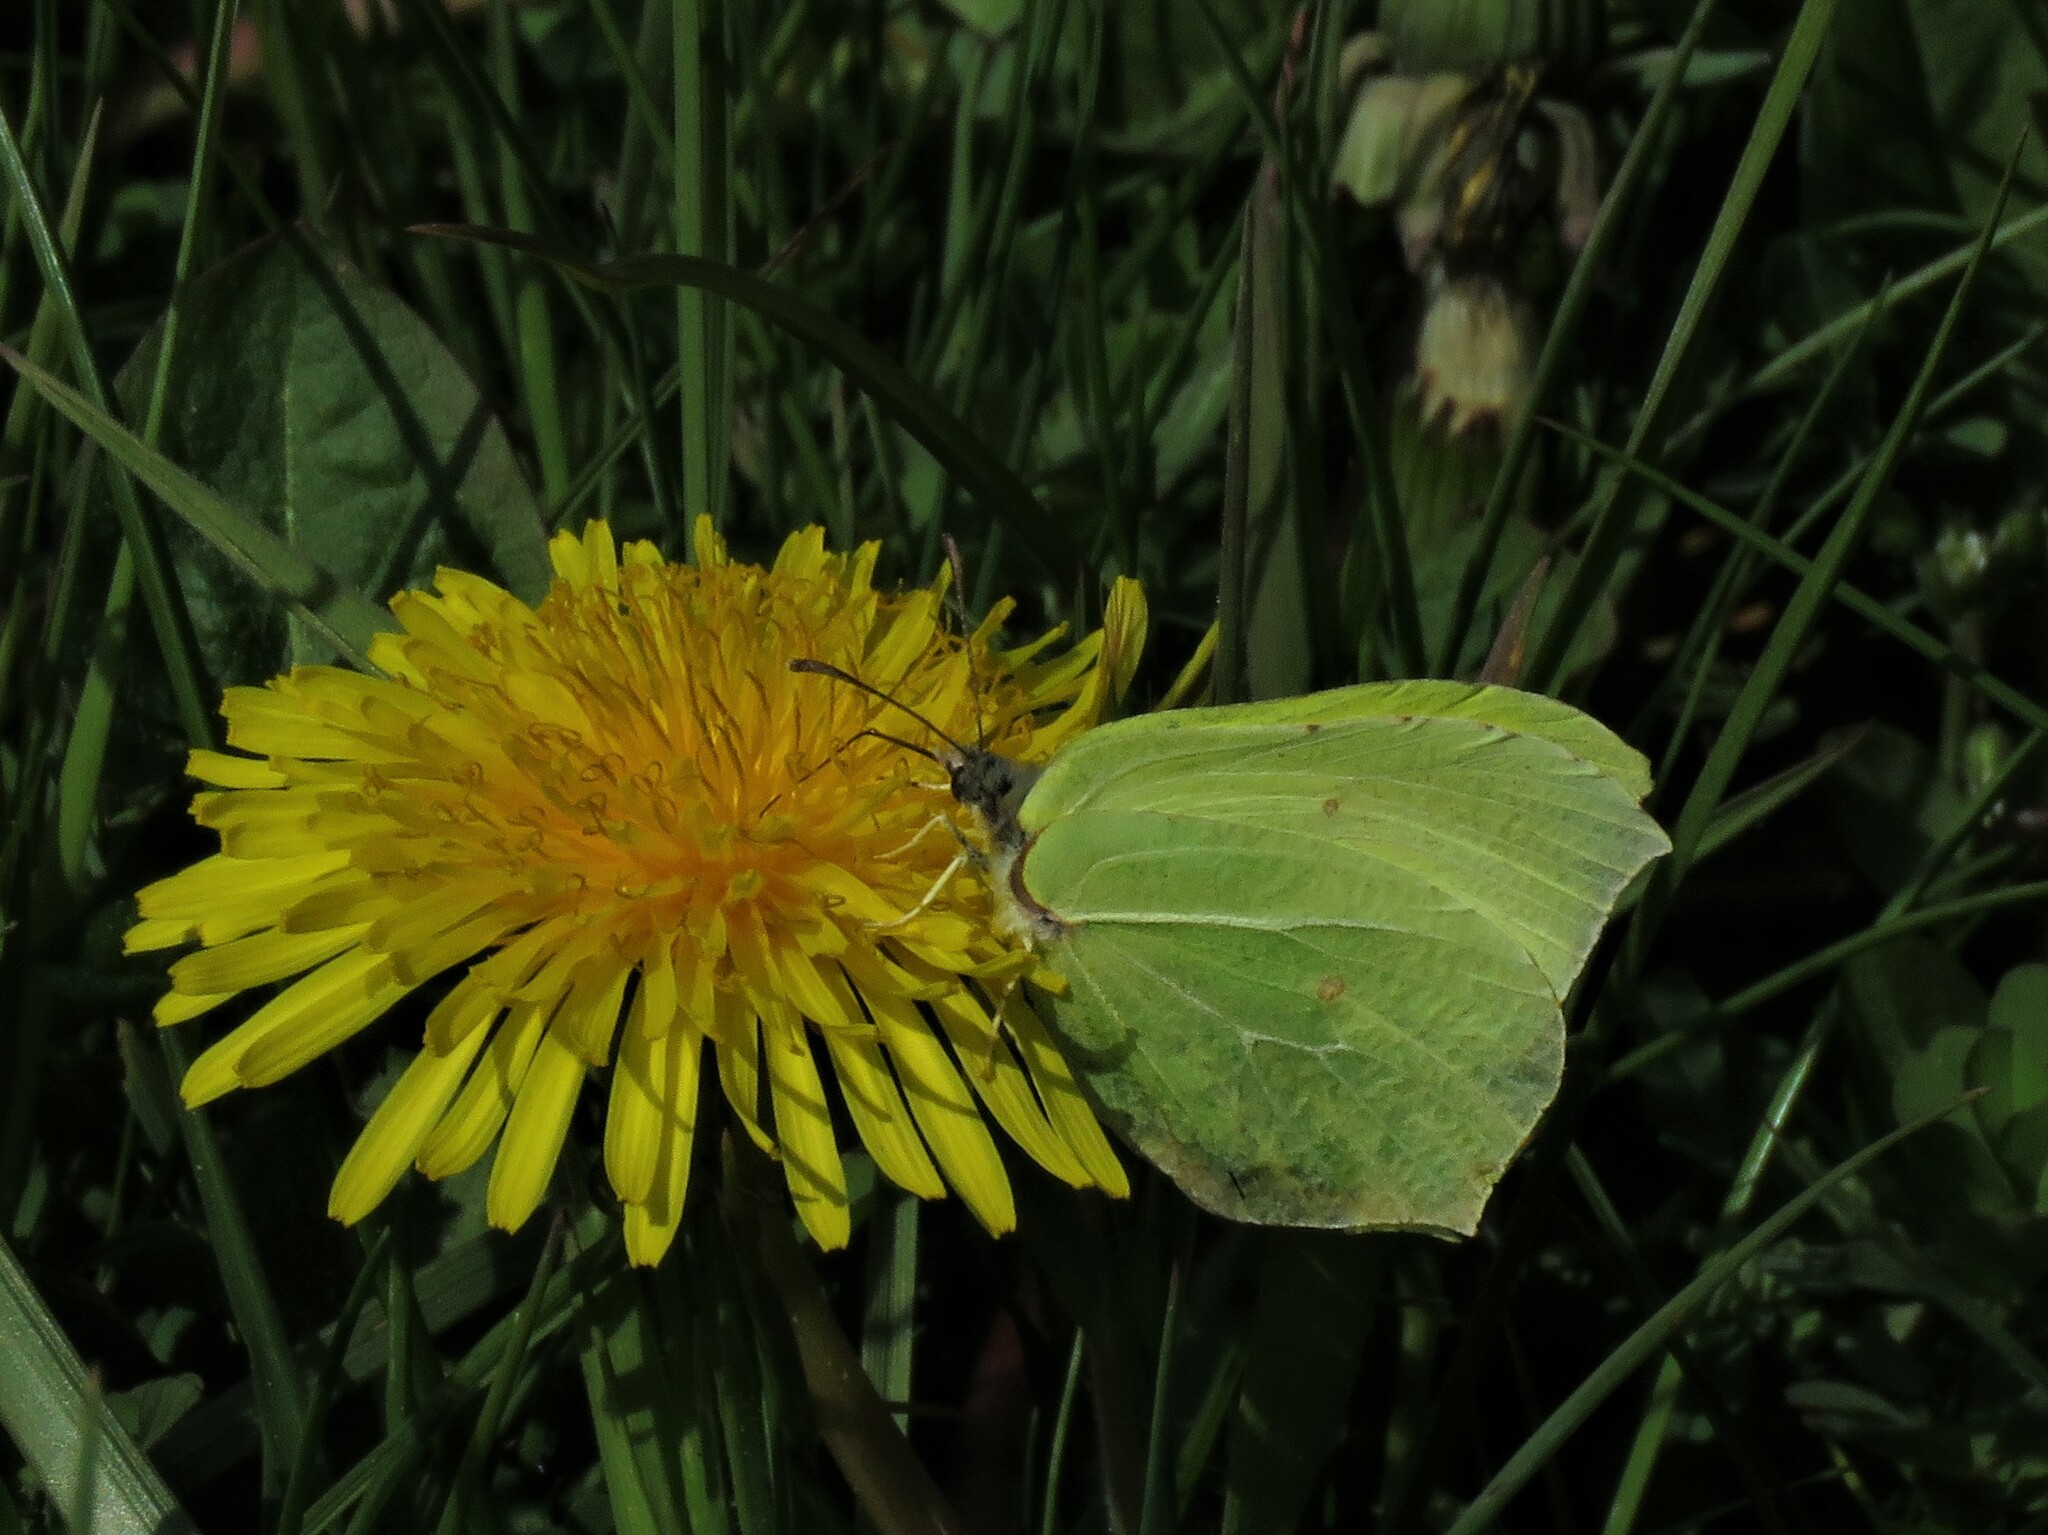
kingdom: Animalia
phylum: Arthropoda
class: Insecta
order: Lepidoptera
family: Pieridae
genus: Gonepteryx
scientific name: Gonepteryx rhamni
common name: Brimstone
